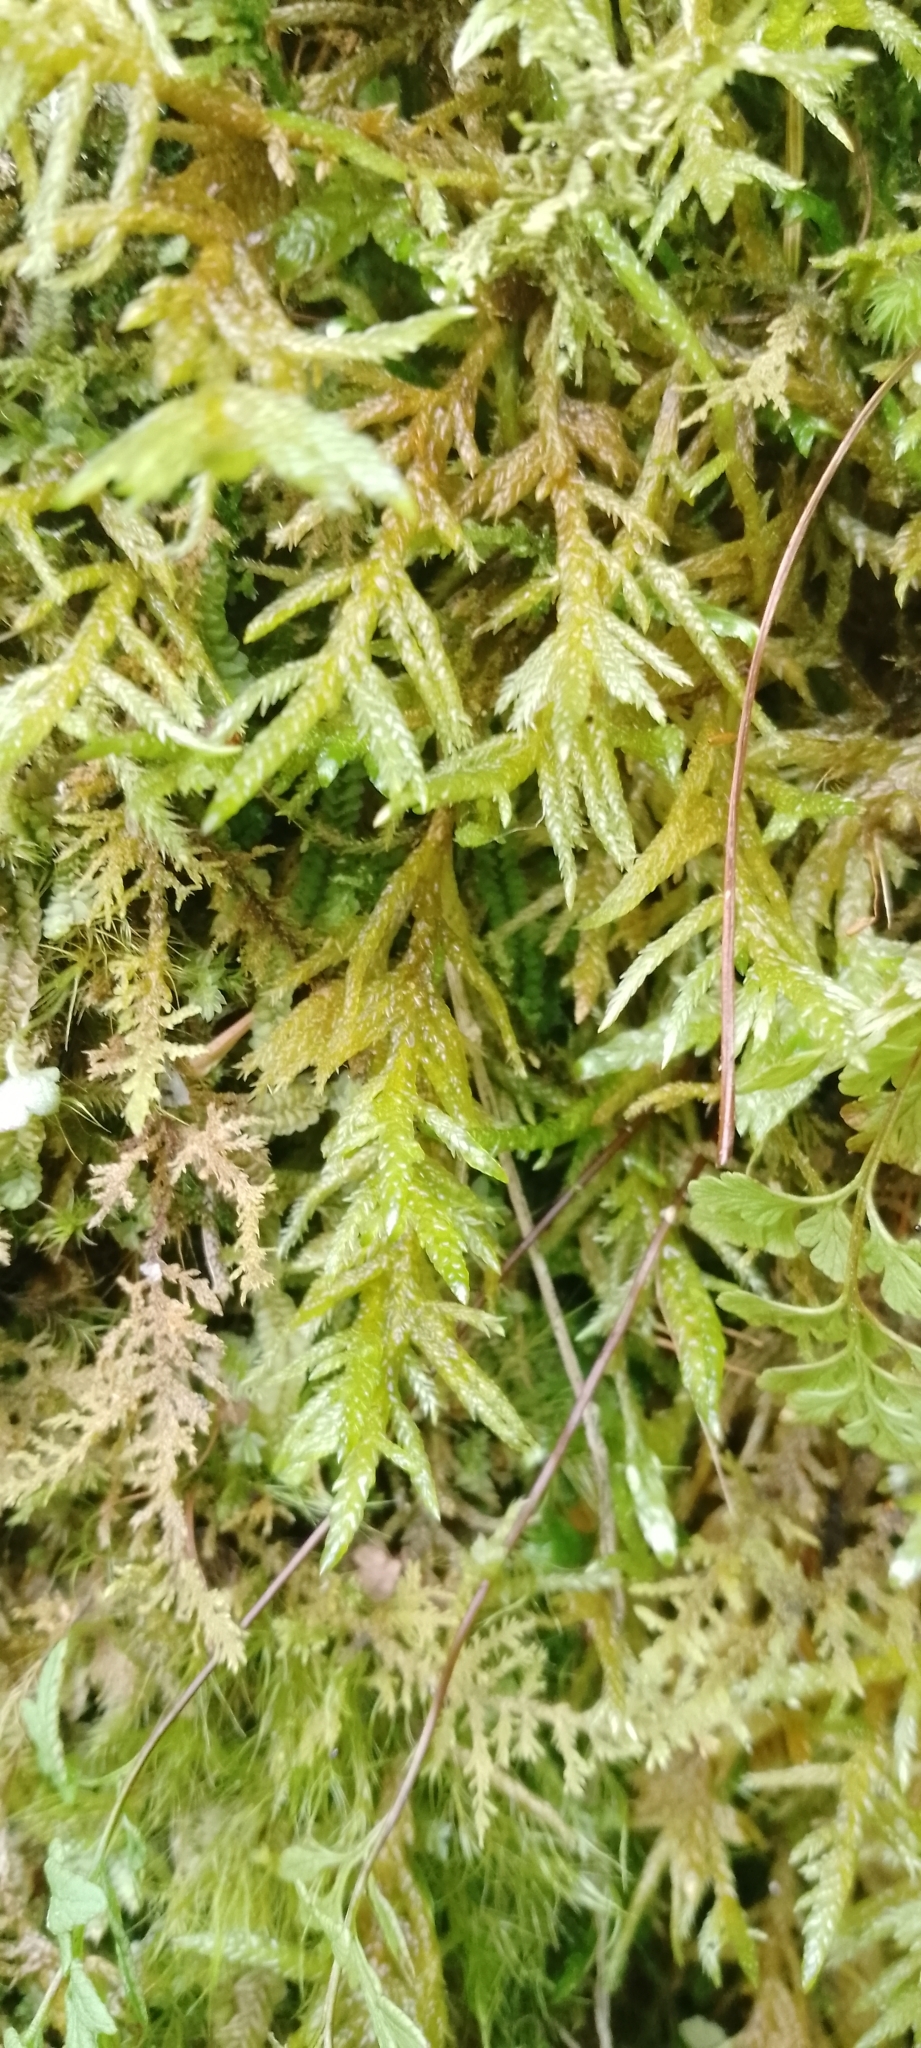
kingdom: Plantae
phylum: Bryophyta
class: Bryopsida
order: Hypnales
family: Hylocomiaceae
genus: Pleurozium
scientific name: Pleurozium schreberi
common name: Red-stemmed feather moss
